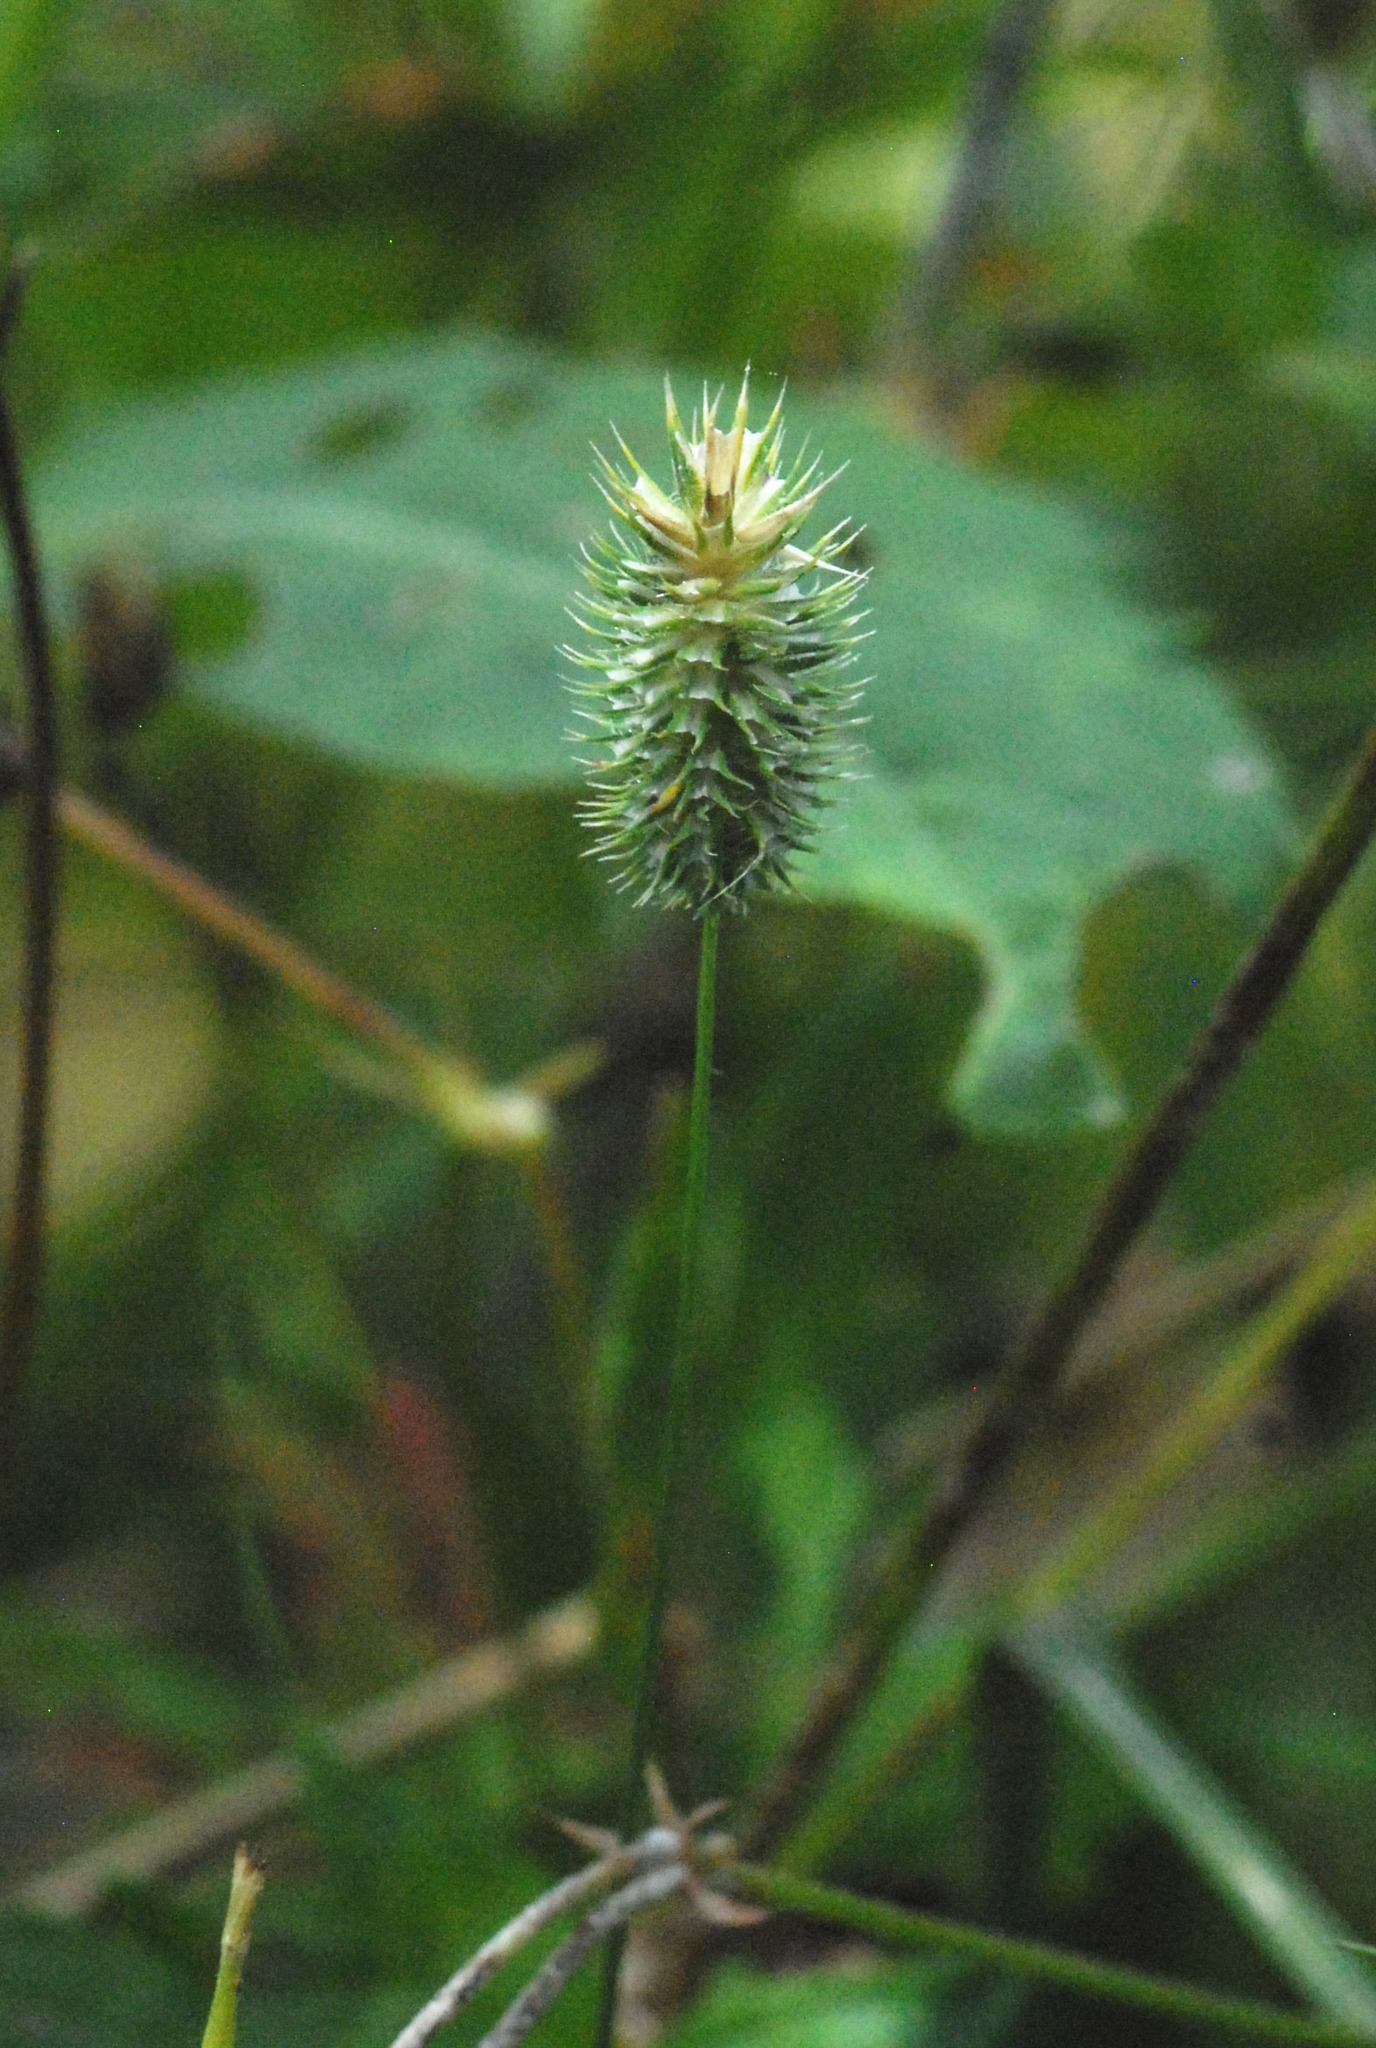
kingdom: Plantae
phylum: Tracheophyta
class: Liliopsida
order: Poales
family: Poaceae
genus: Phleum
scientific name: Phleum pratense
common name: Timothy grass
